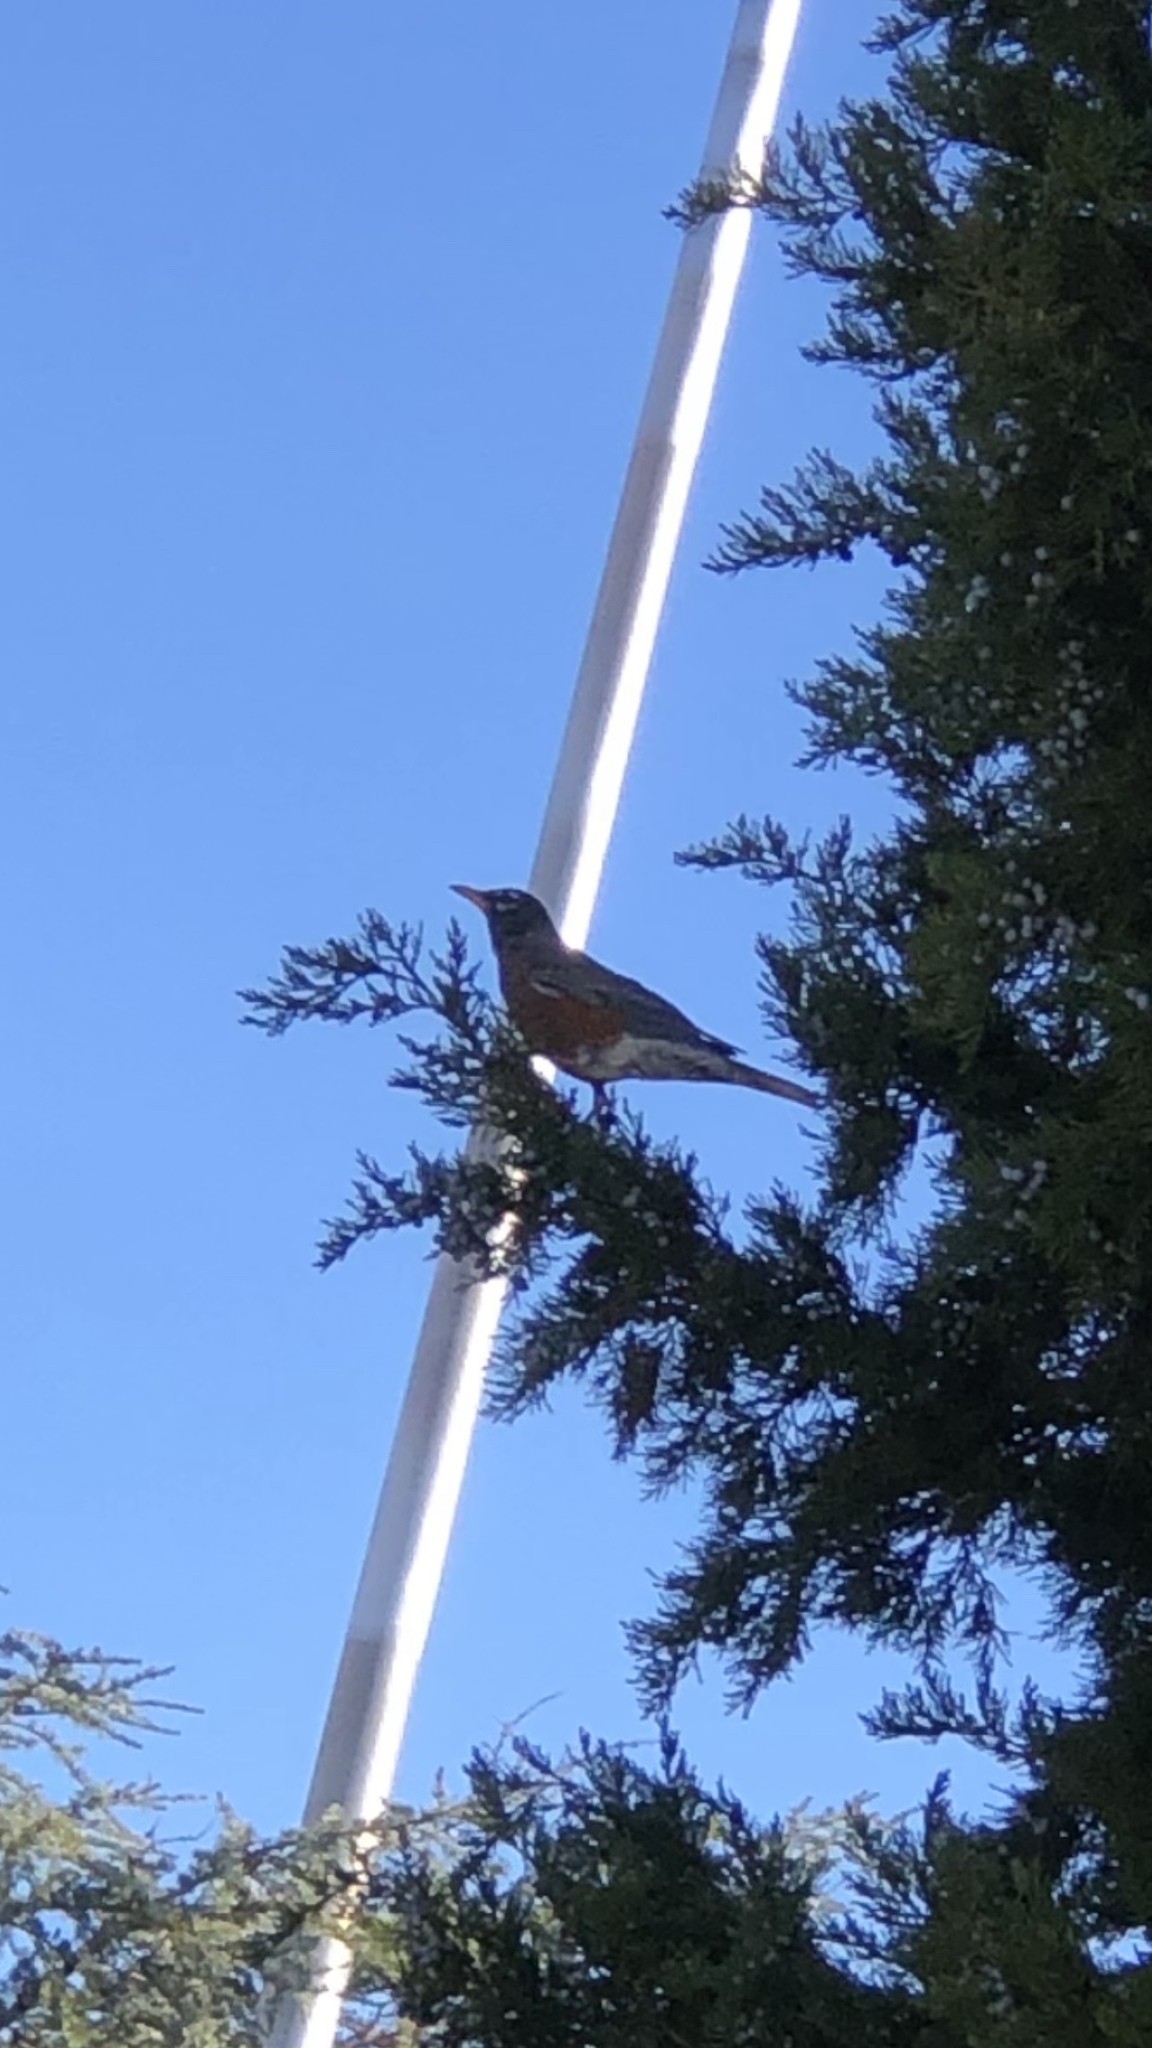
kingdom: Animalia
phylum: Chordata
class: Aves
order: Passeriformes
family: Turdidae
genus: Turdus
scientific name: Turdus migratorius
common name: American robin
